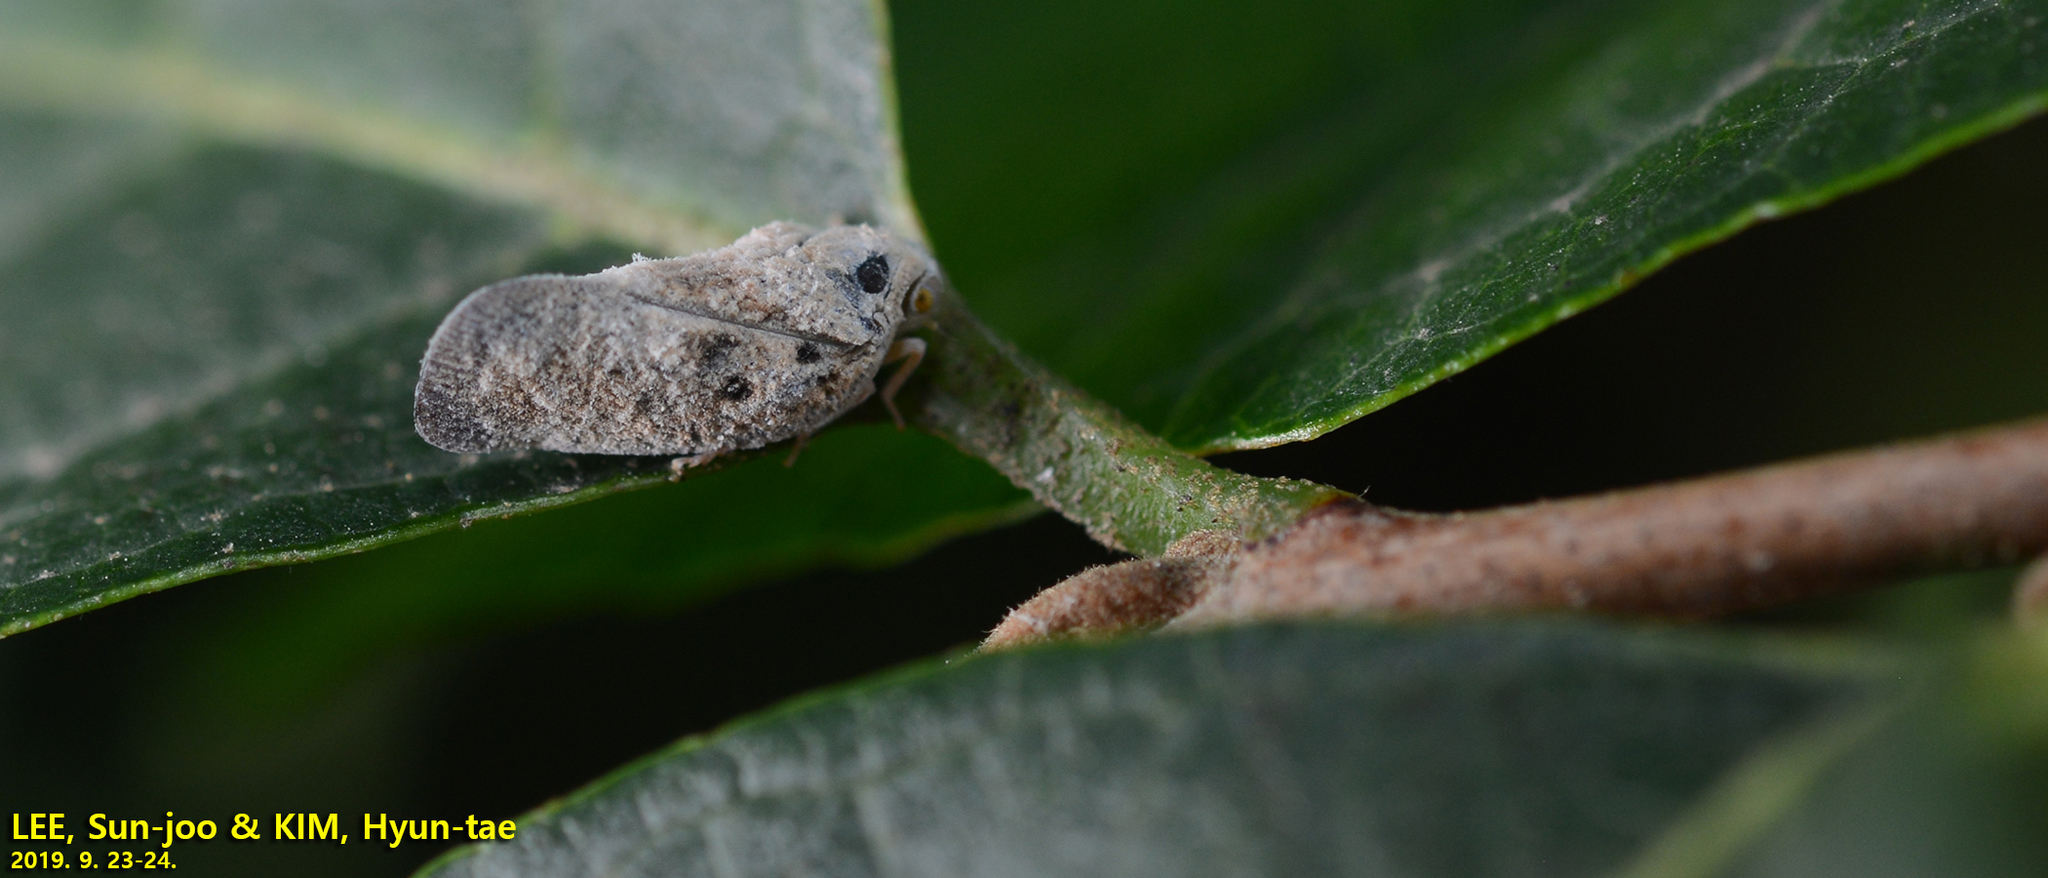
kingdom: Animalia
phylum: Arthropoda
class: Insecta
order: Hemiptera
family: Flatidae
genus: Metcalfa
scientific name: Metcalfa pruinosa
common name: Citrus flatid planthopper
